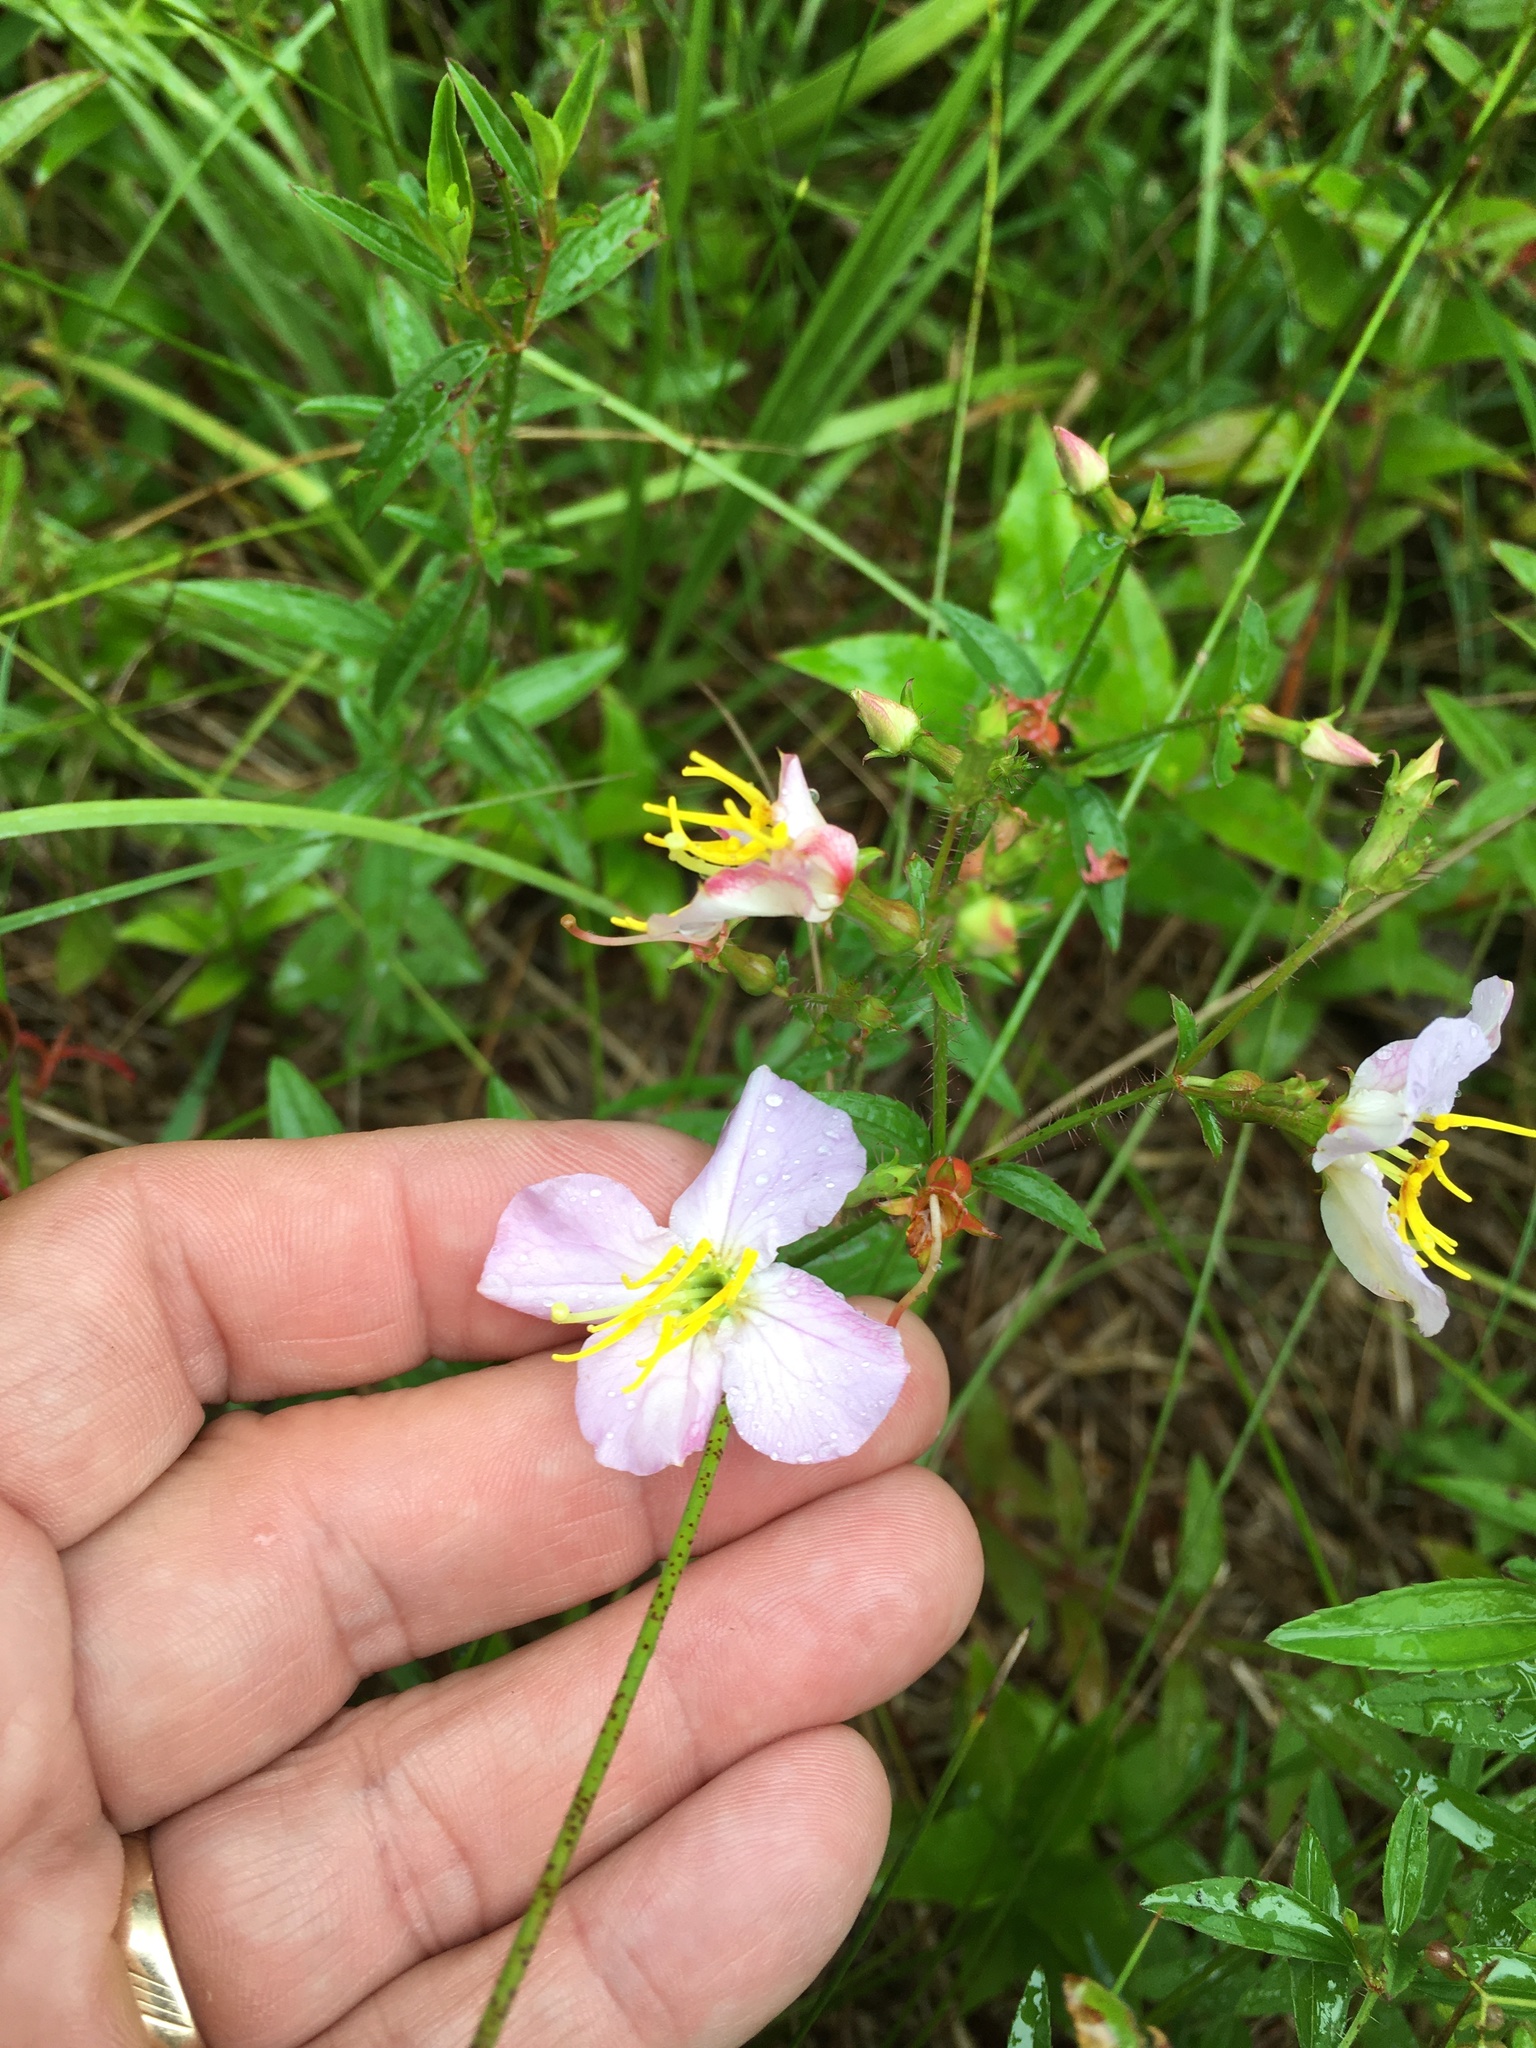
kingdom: Plantae
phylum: Tracheophyta
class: Magnoliopsida
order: Myrtales
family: Melastomataceae
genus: Rhexia
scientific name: Rhexia mariana
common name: Dull meadow-pitcher
